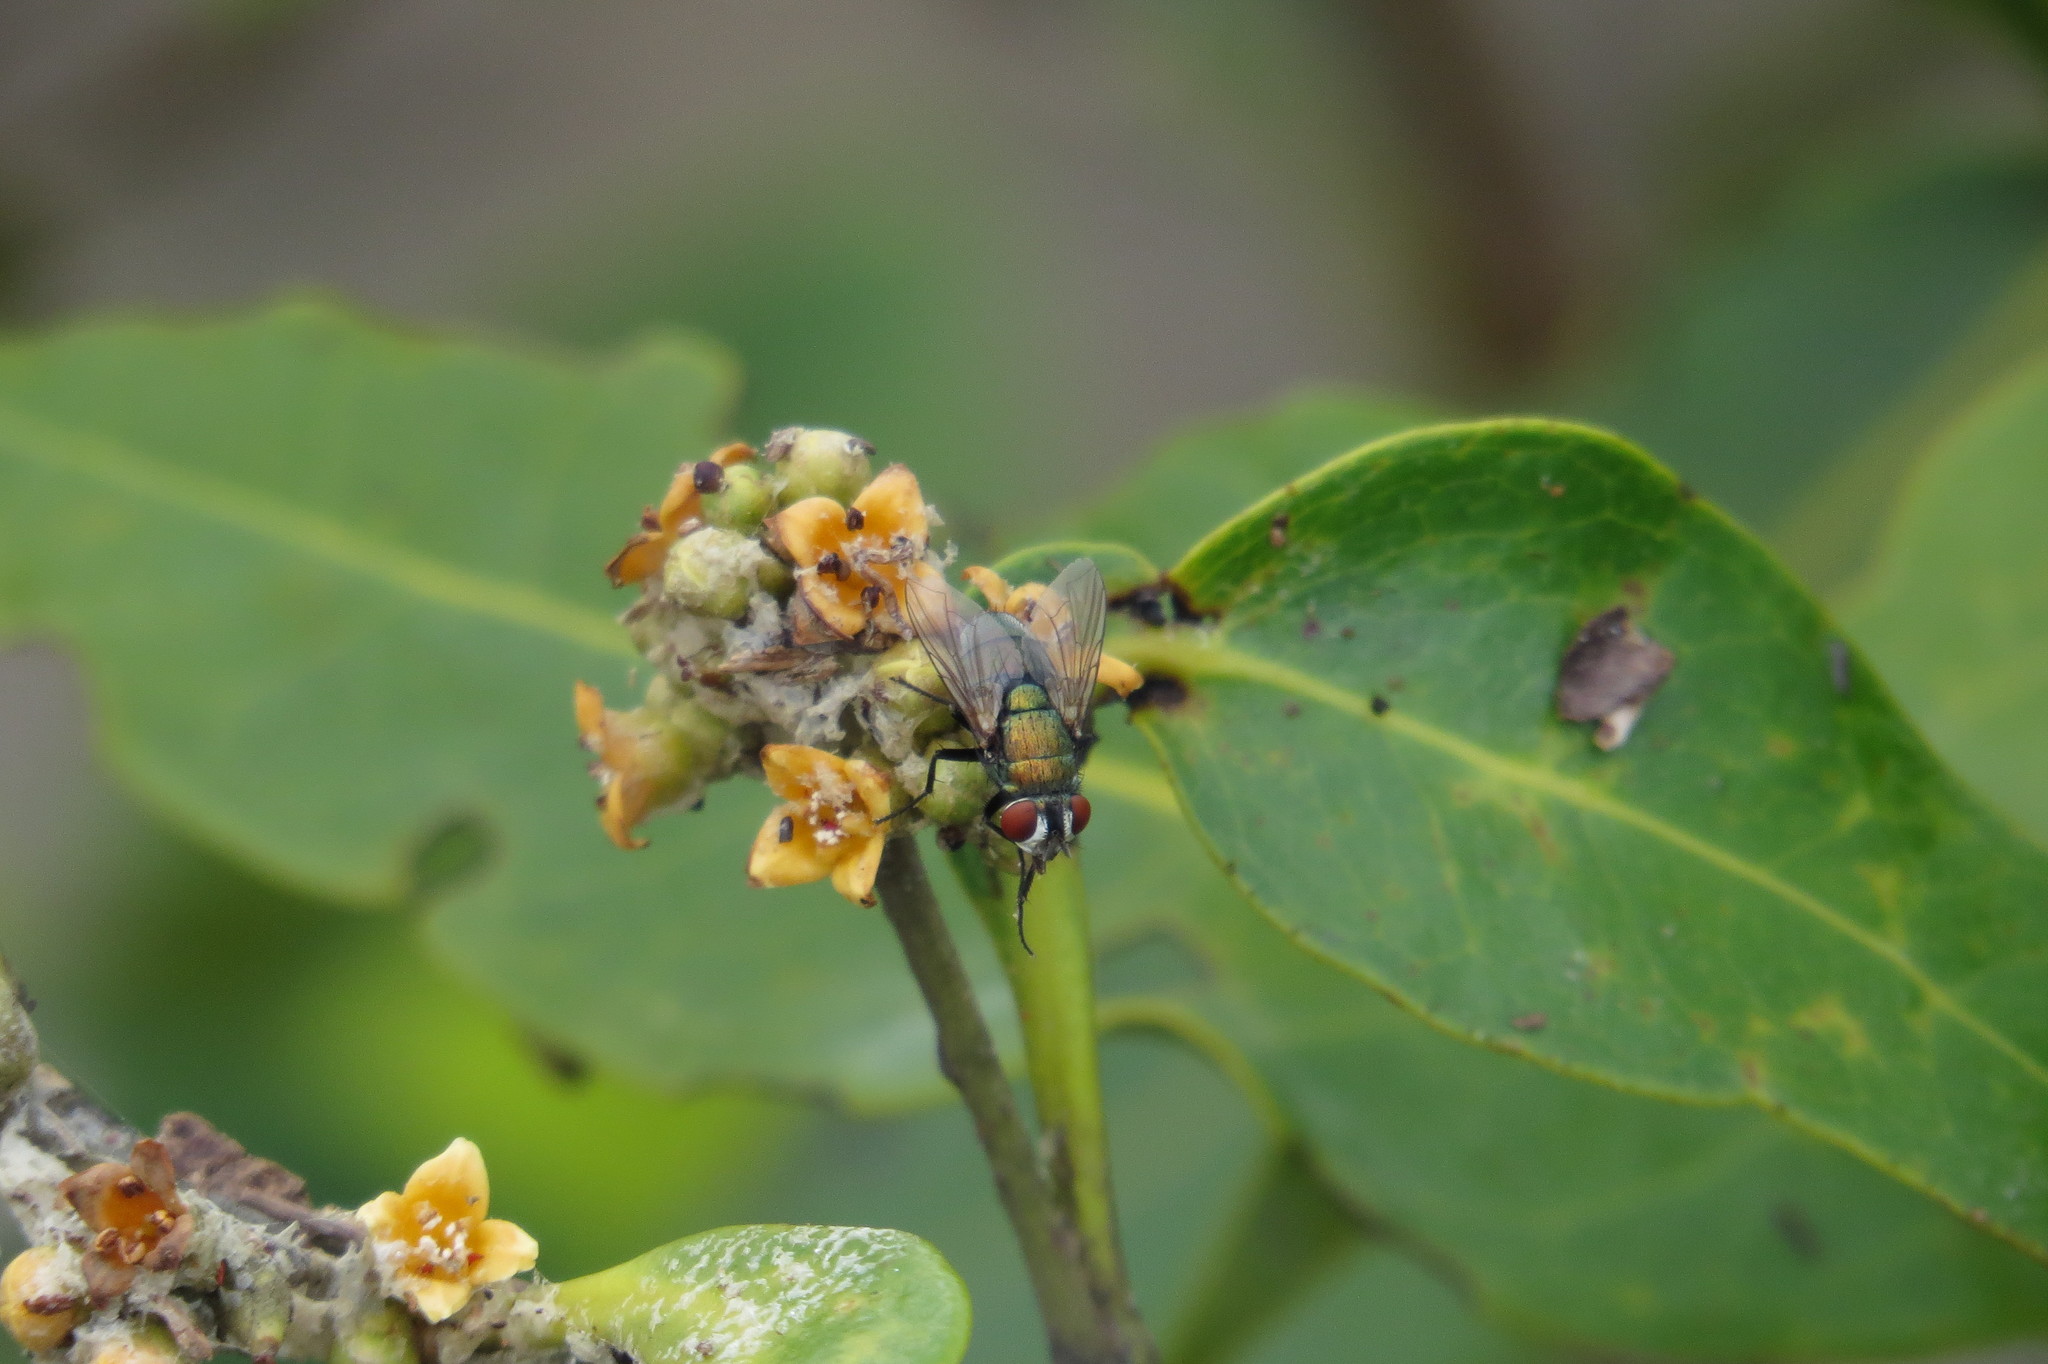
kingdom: Plantae
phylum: Tracheophyta
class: Magnoliopsida
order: Lamiales
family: Acanthaceae
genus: Avicennia
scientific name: Avicennia marina
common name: Gray mangrove
